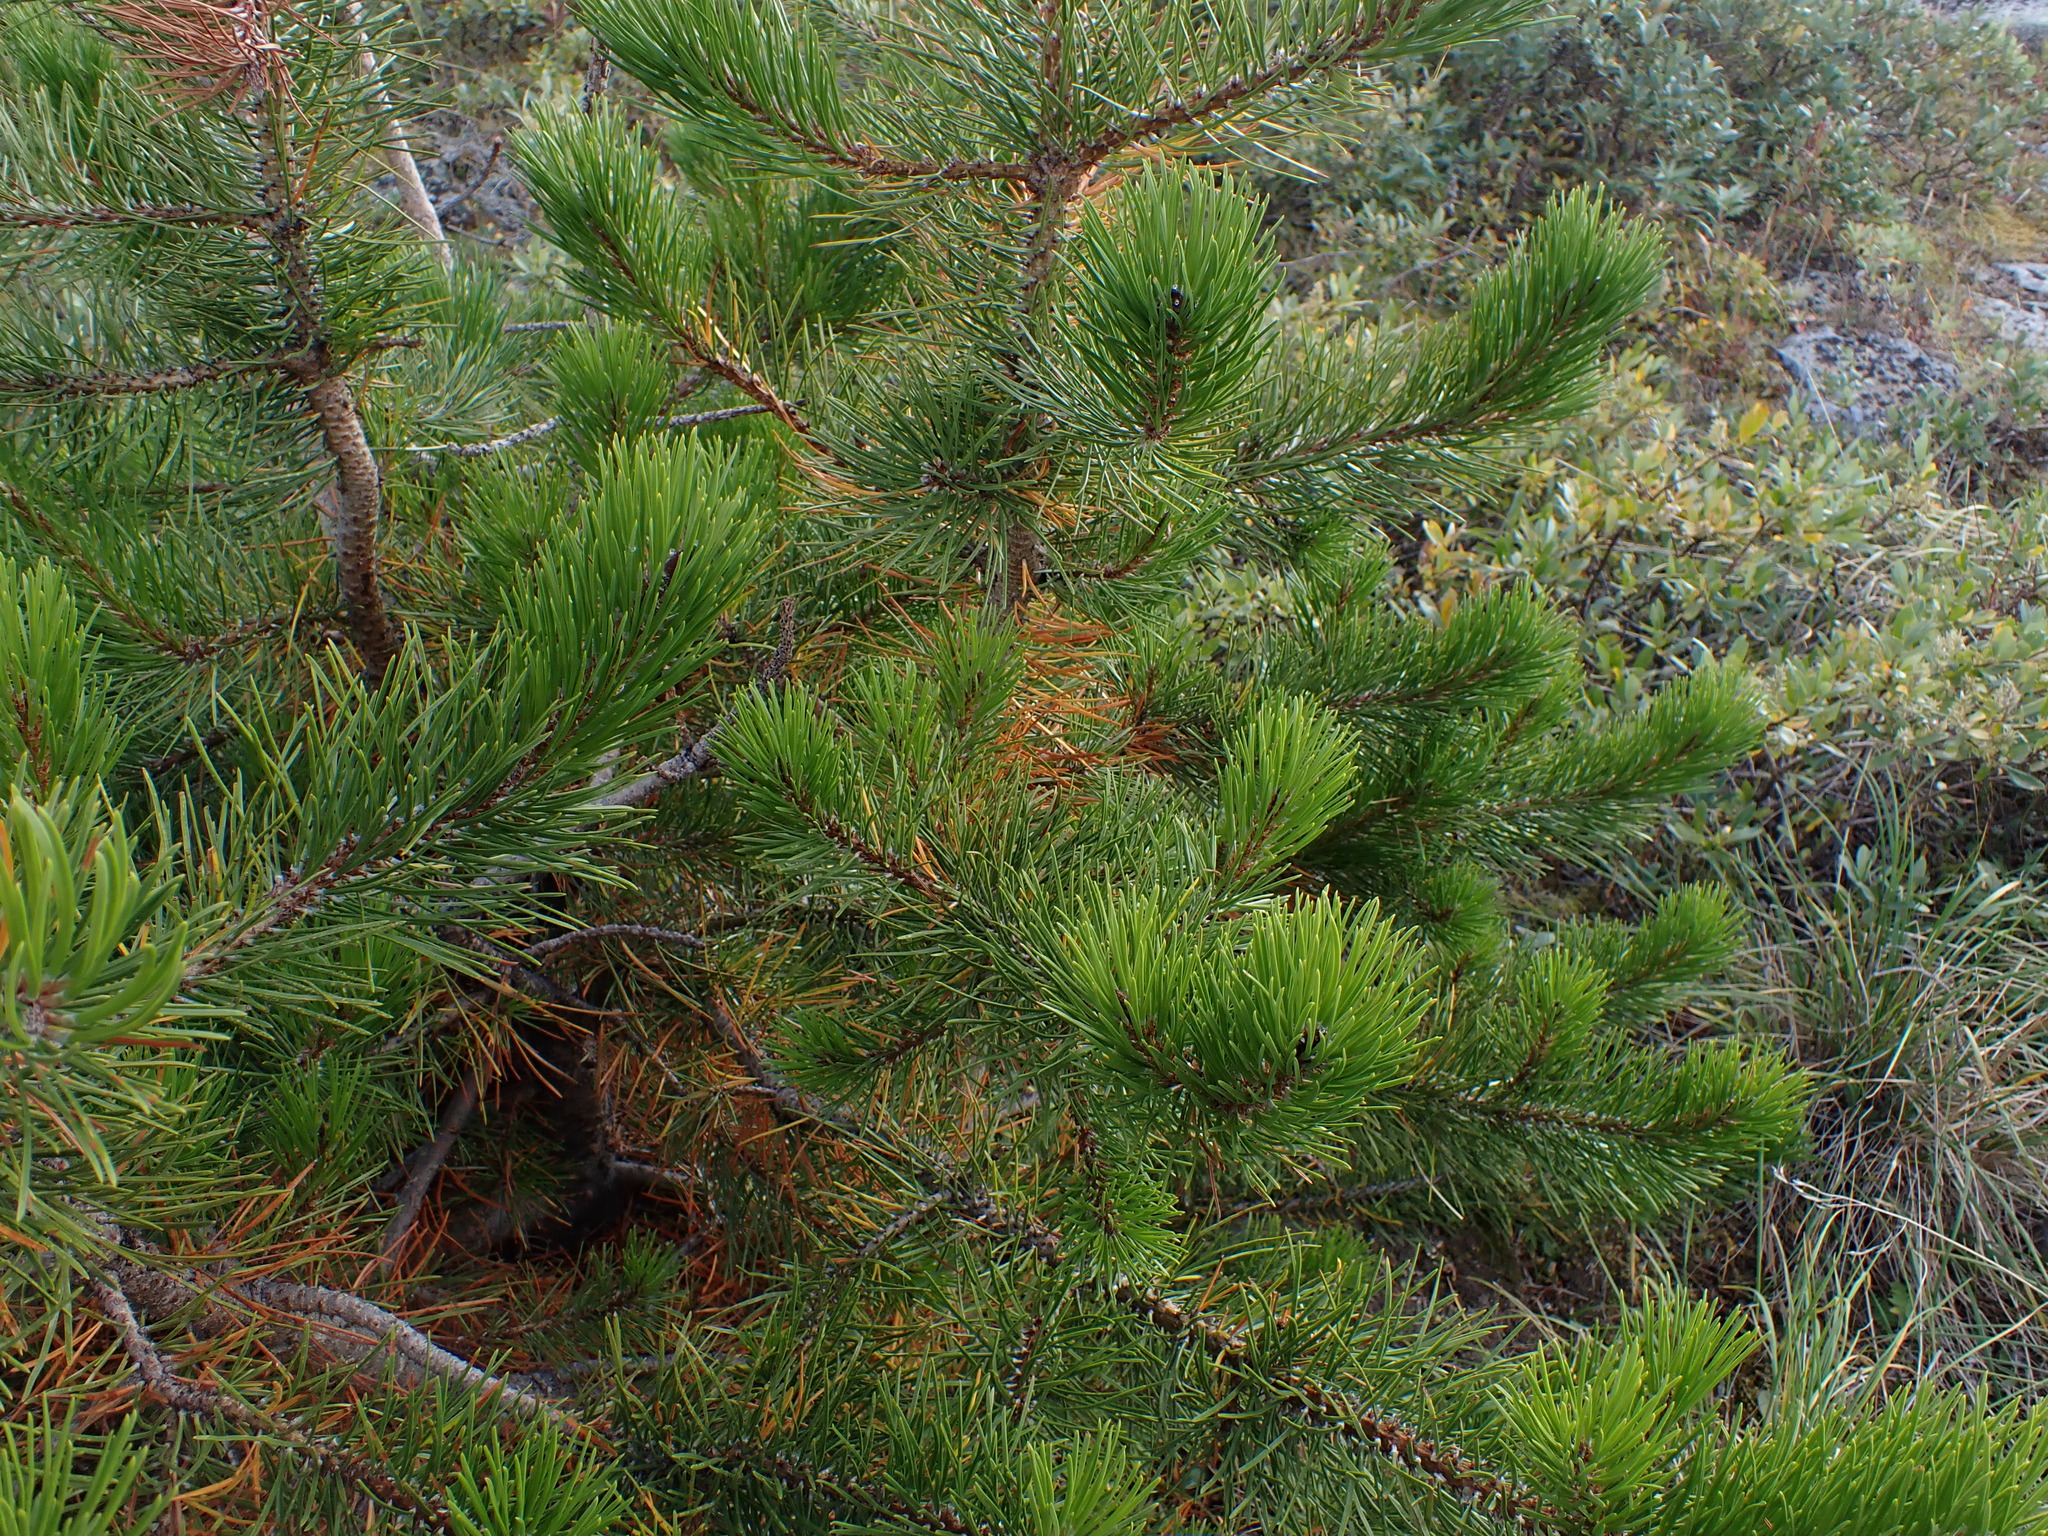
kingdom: Plantae
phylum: Tracheophyta
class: Pinopsida
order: Pinales
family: Pinaceae
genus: Pinus
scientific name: Pinus contorta
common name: Lodgepole pine
